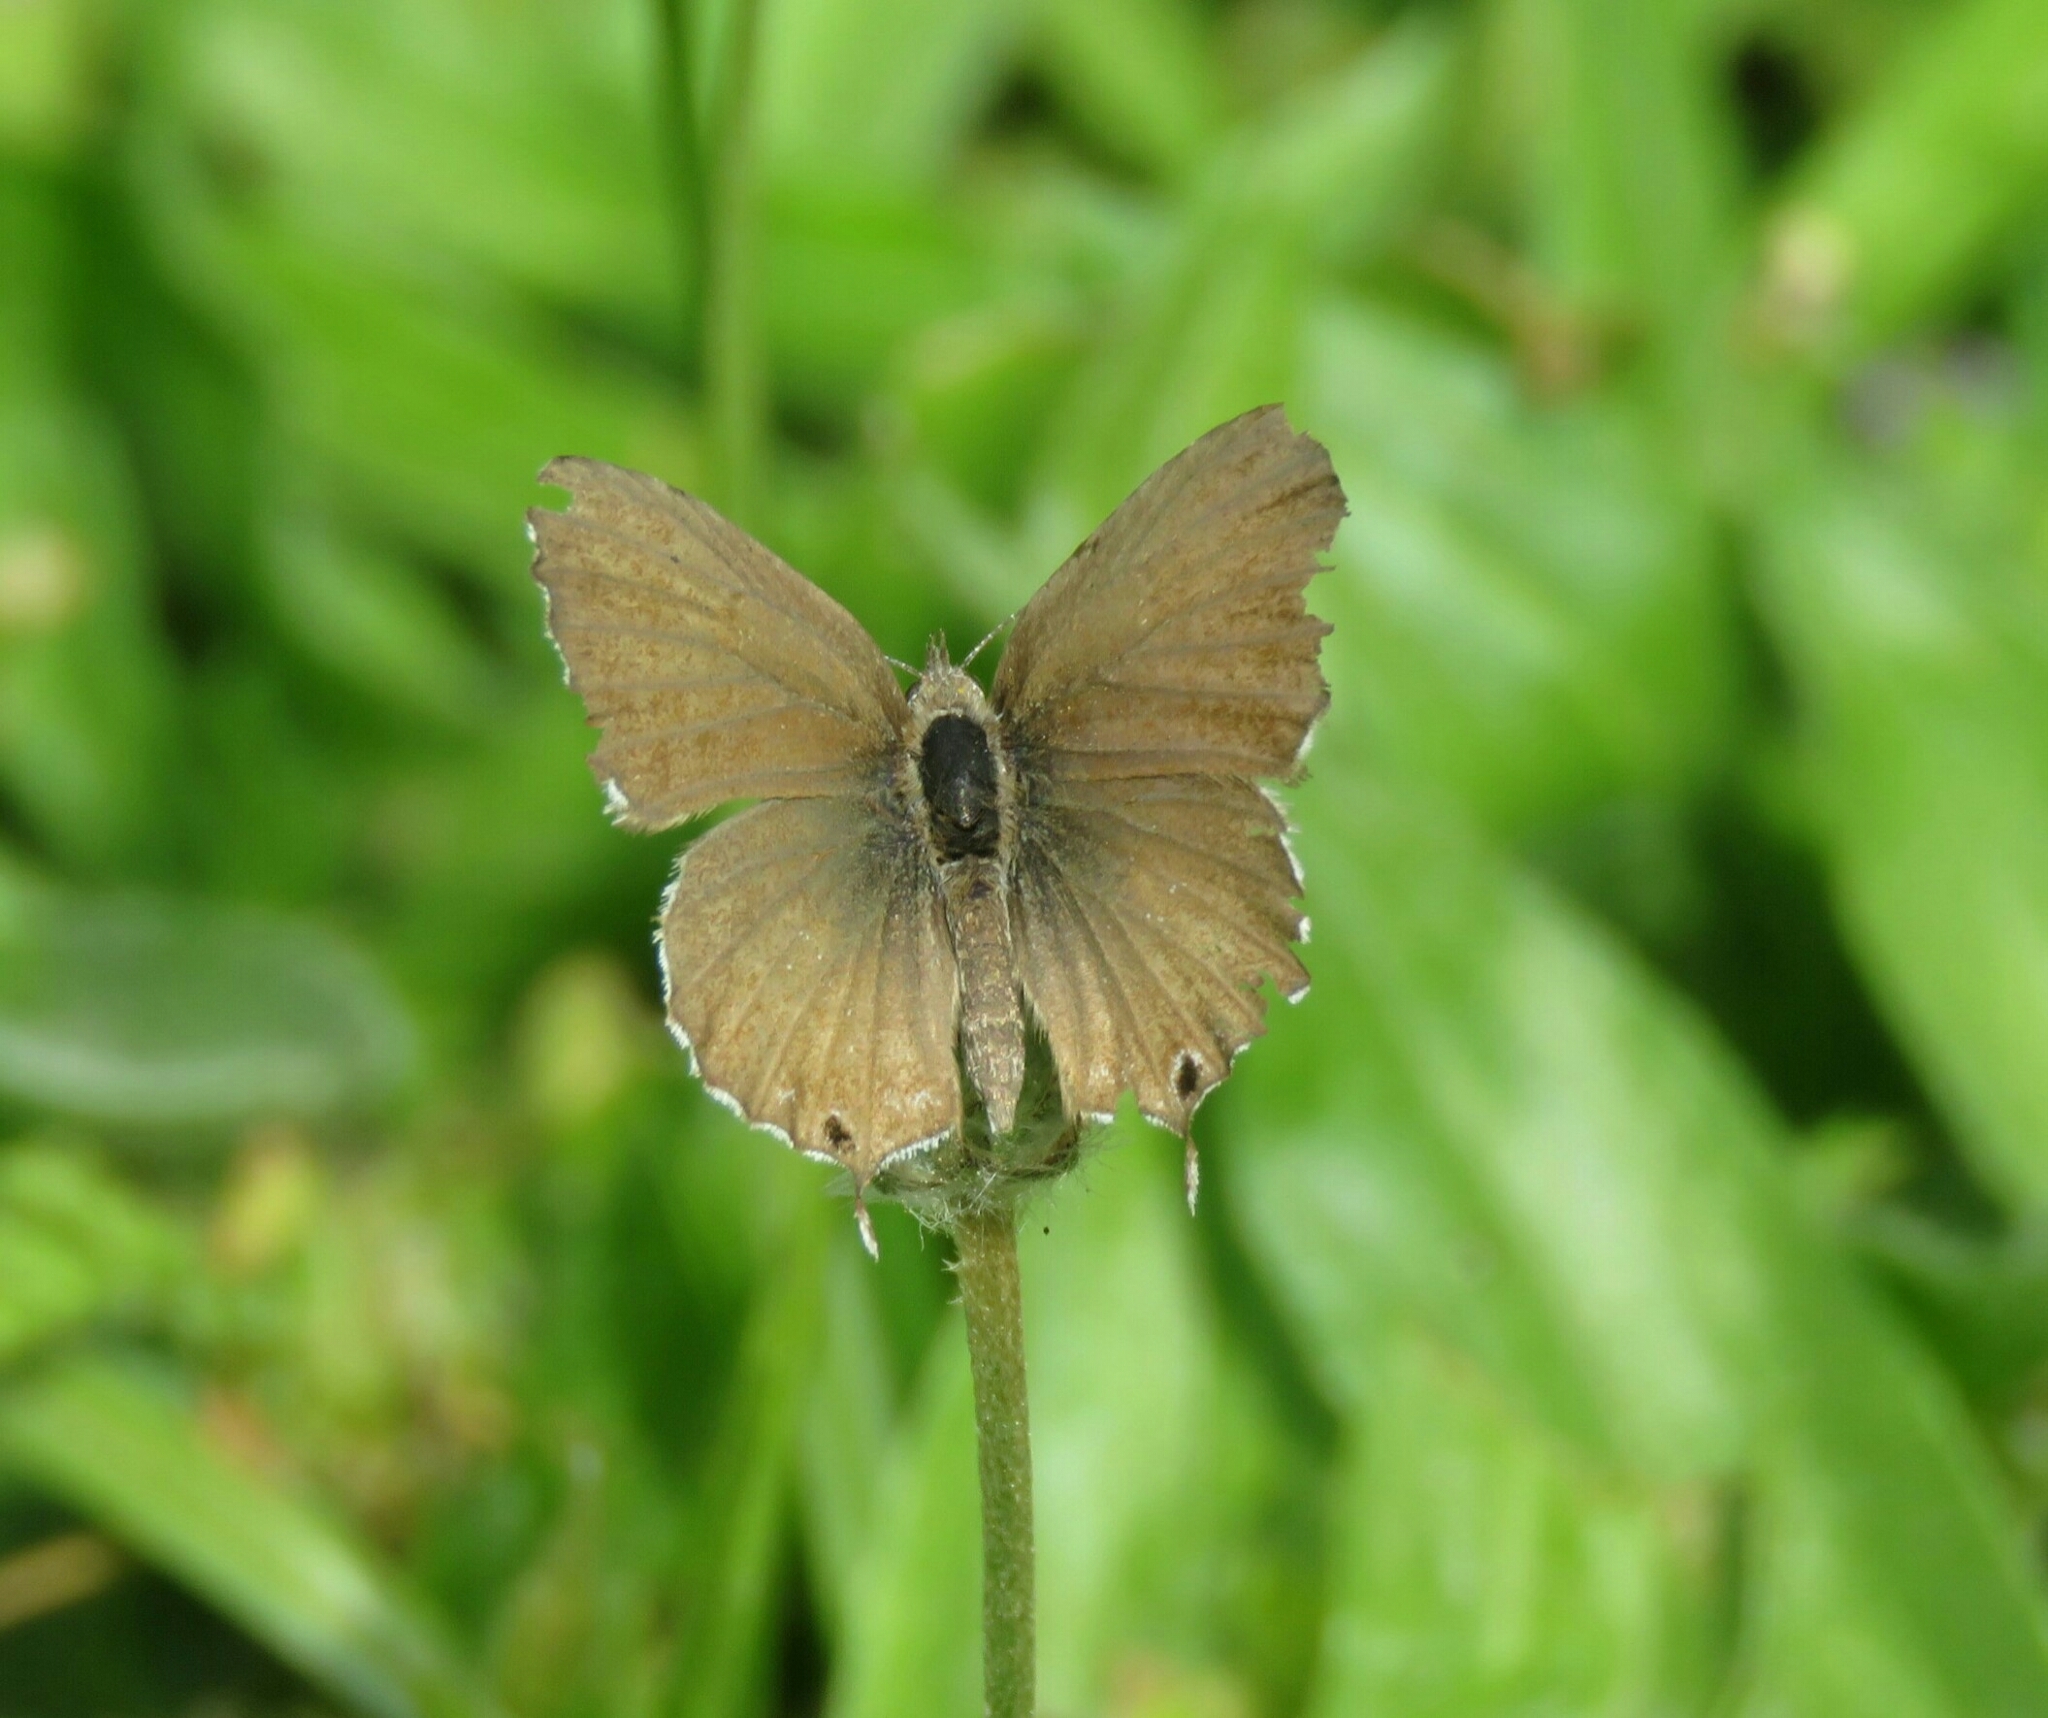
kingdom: Animalia
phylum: Arthropoda
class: Insecta
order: Lepidoptera
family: Lycaenidae
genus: Cacyreus
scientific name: Cacyreus marshalli
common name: Geranium bronze
